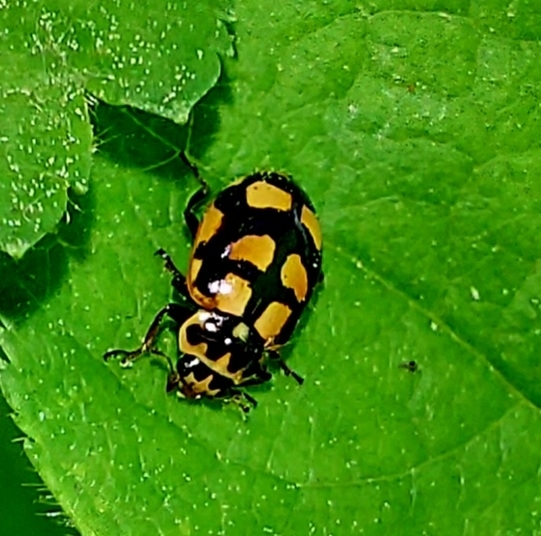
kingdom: Animalia
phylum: Arthropoda
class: Insecta
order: Coleoptera
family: Coccinellidae
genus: Propylaea
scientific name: Propylaea quatuordecimpunctata
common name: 14-spotted ladybird beetle
